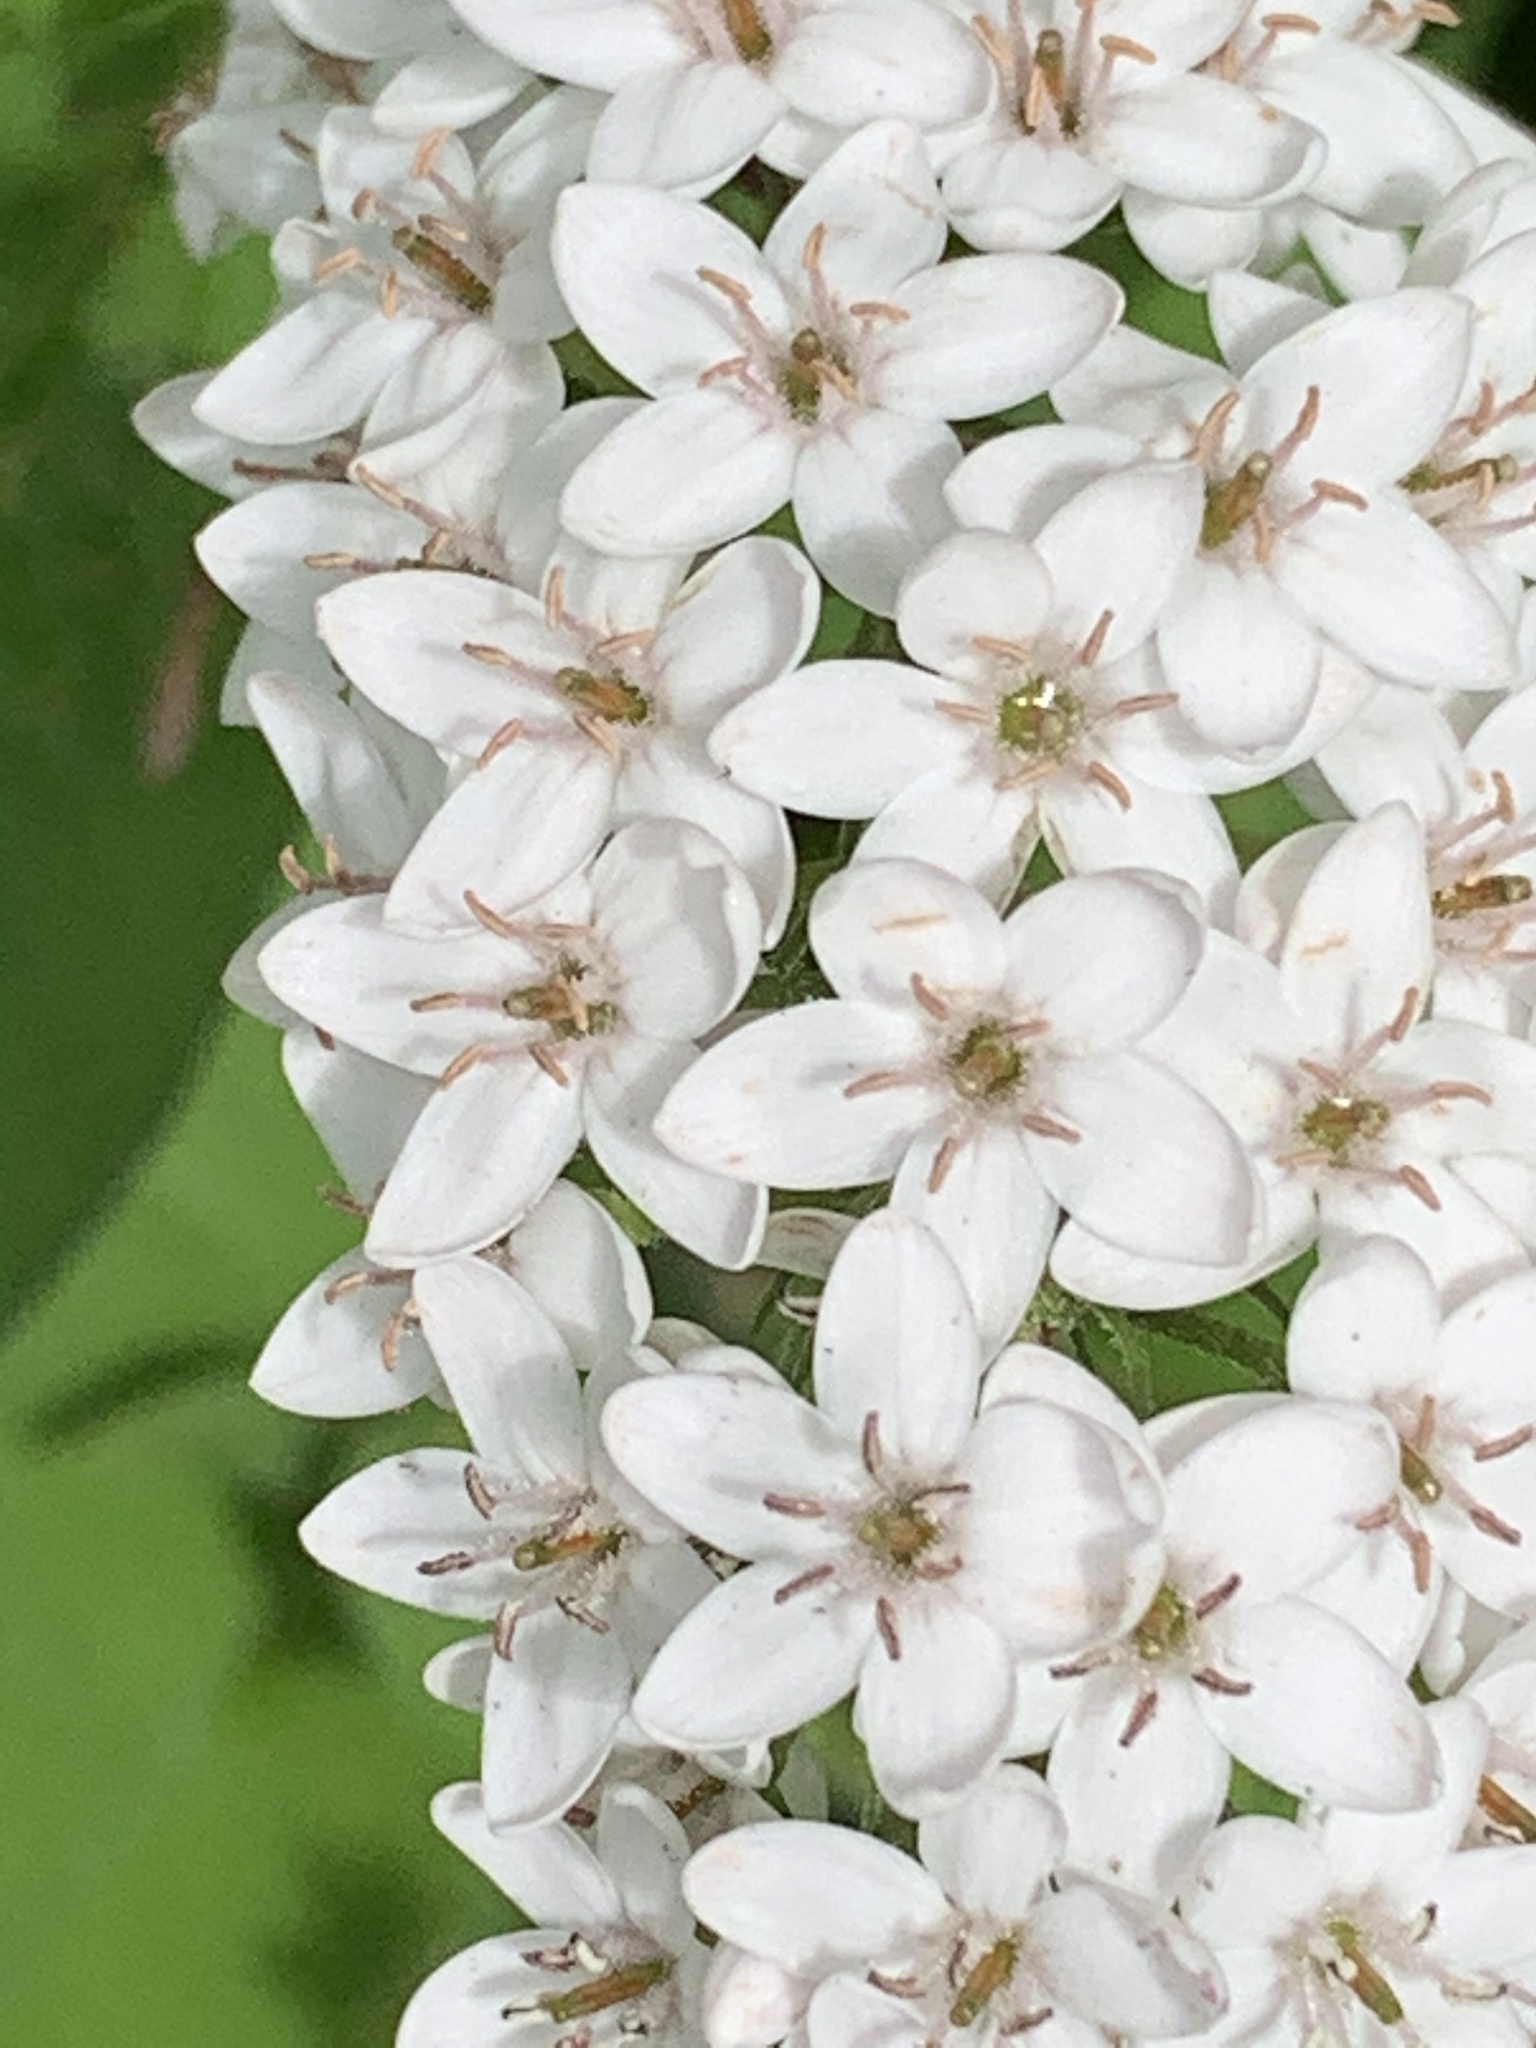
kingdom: Plantae
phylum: Tracheophyta
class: Magnoliopsida
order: Ericales
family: Primulaceae
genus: Lysimachia
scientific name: Lysimachia clethroides
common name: Gooseneck loosestrife
